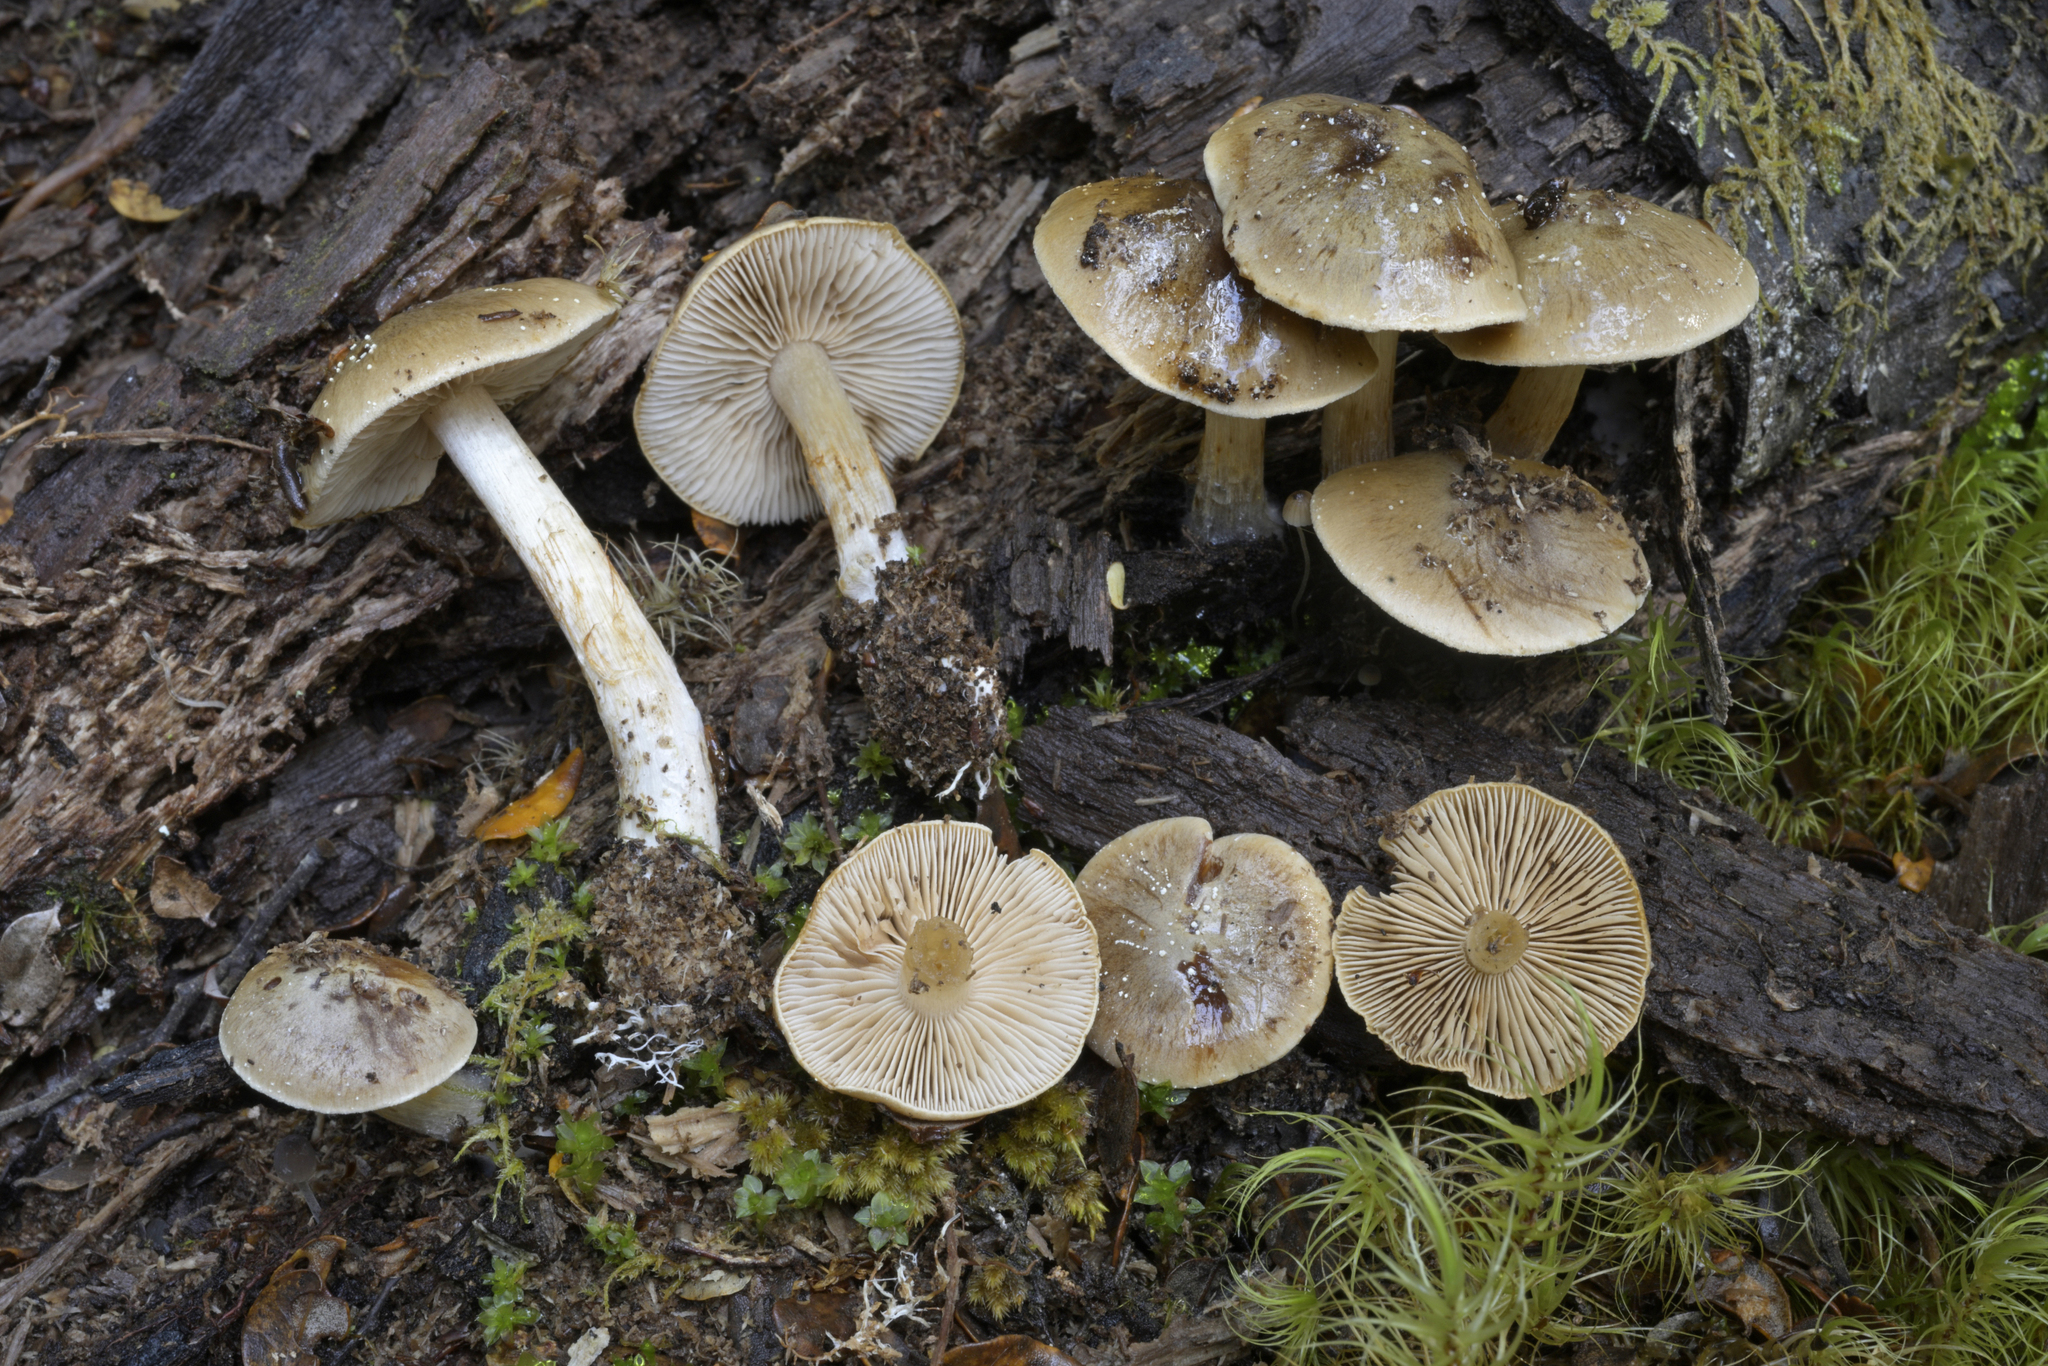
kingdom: Fungi
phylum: Basidiomycota
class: Agaricomycetes
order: Agaricales
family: Cortinariaceae
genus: Thaxterogaster
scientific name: Thaxterogaster peristeris
